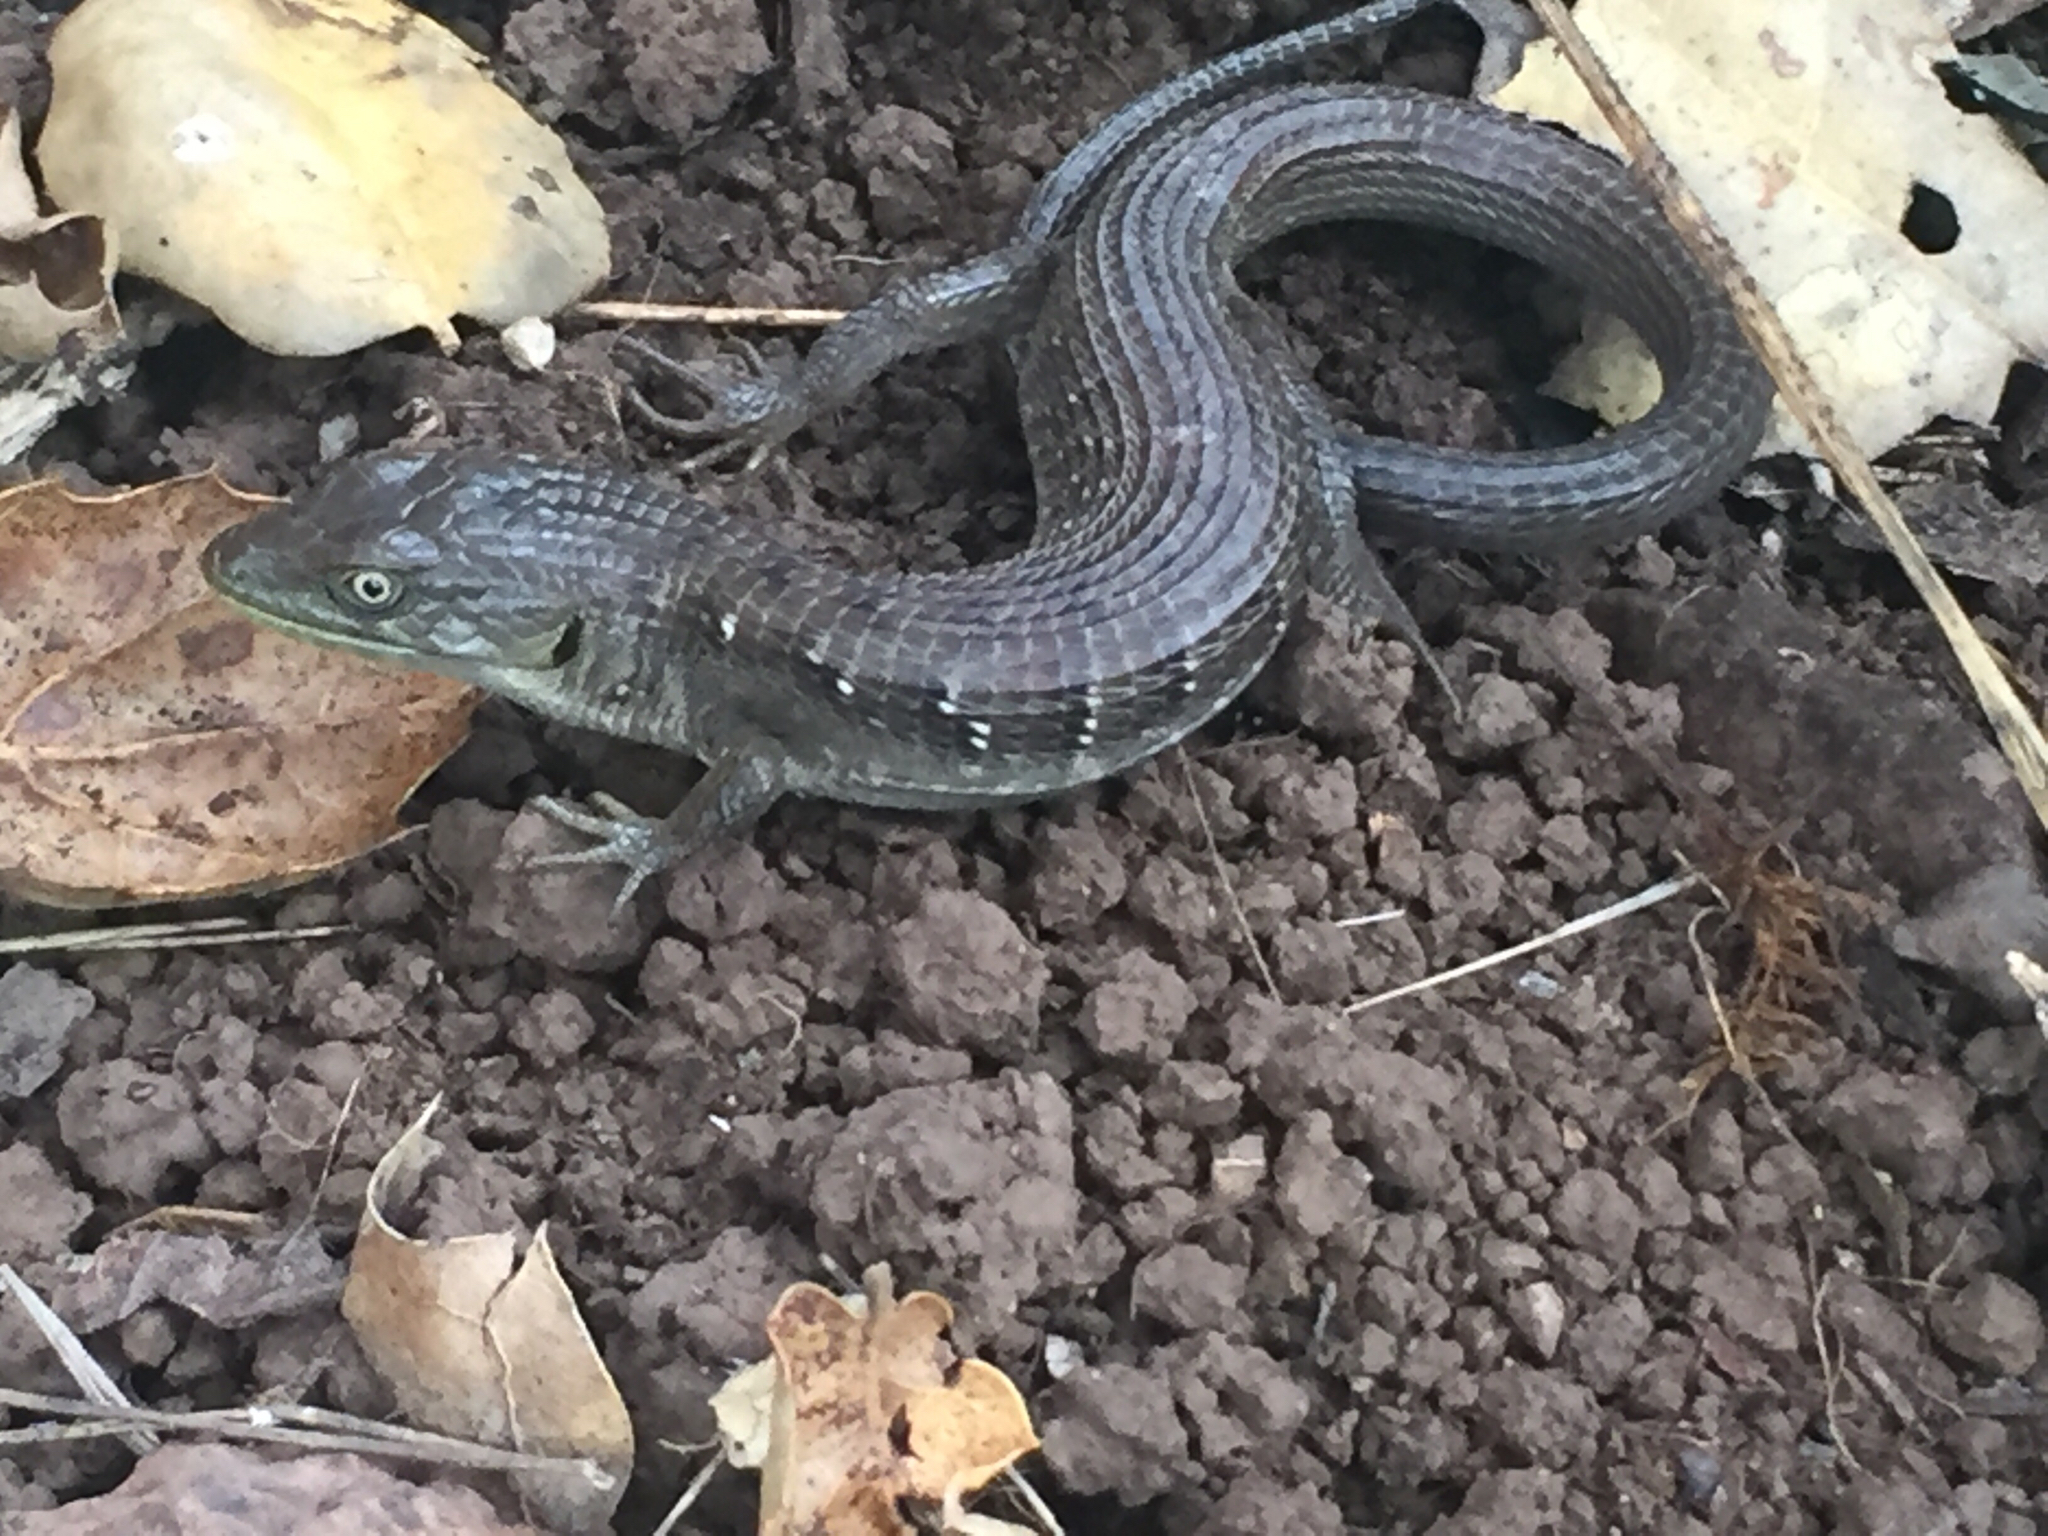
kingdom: Animalia
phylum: Chordata
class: Squamata
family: Anguidae
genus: Elgaria
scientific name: Elgaria multicarinata
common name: Southern alligator lizard
